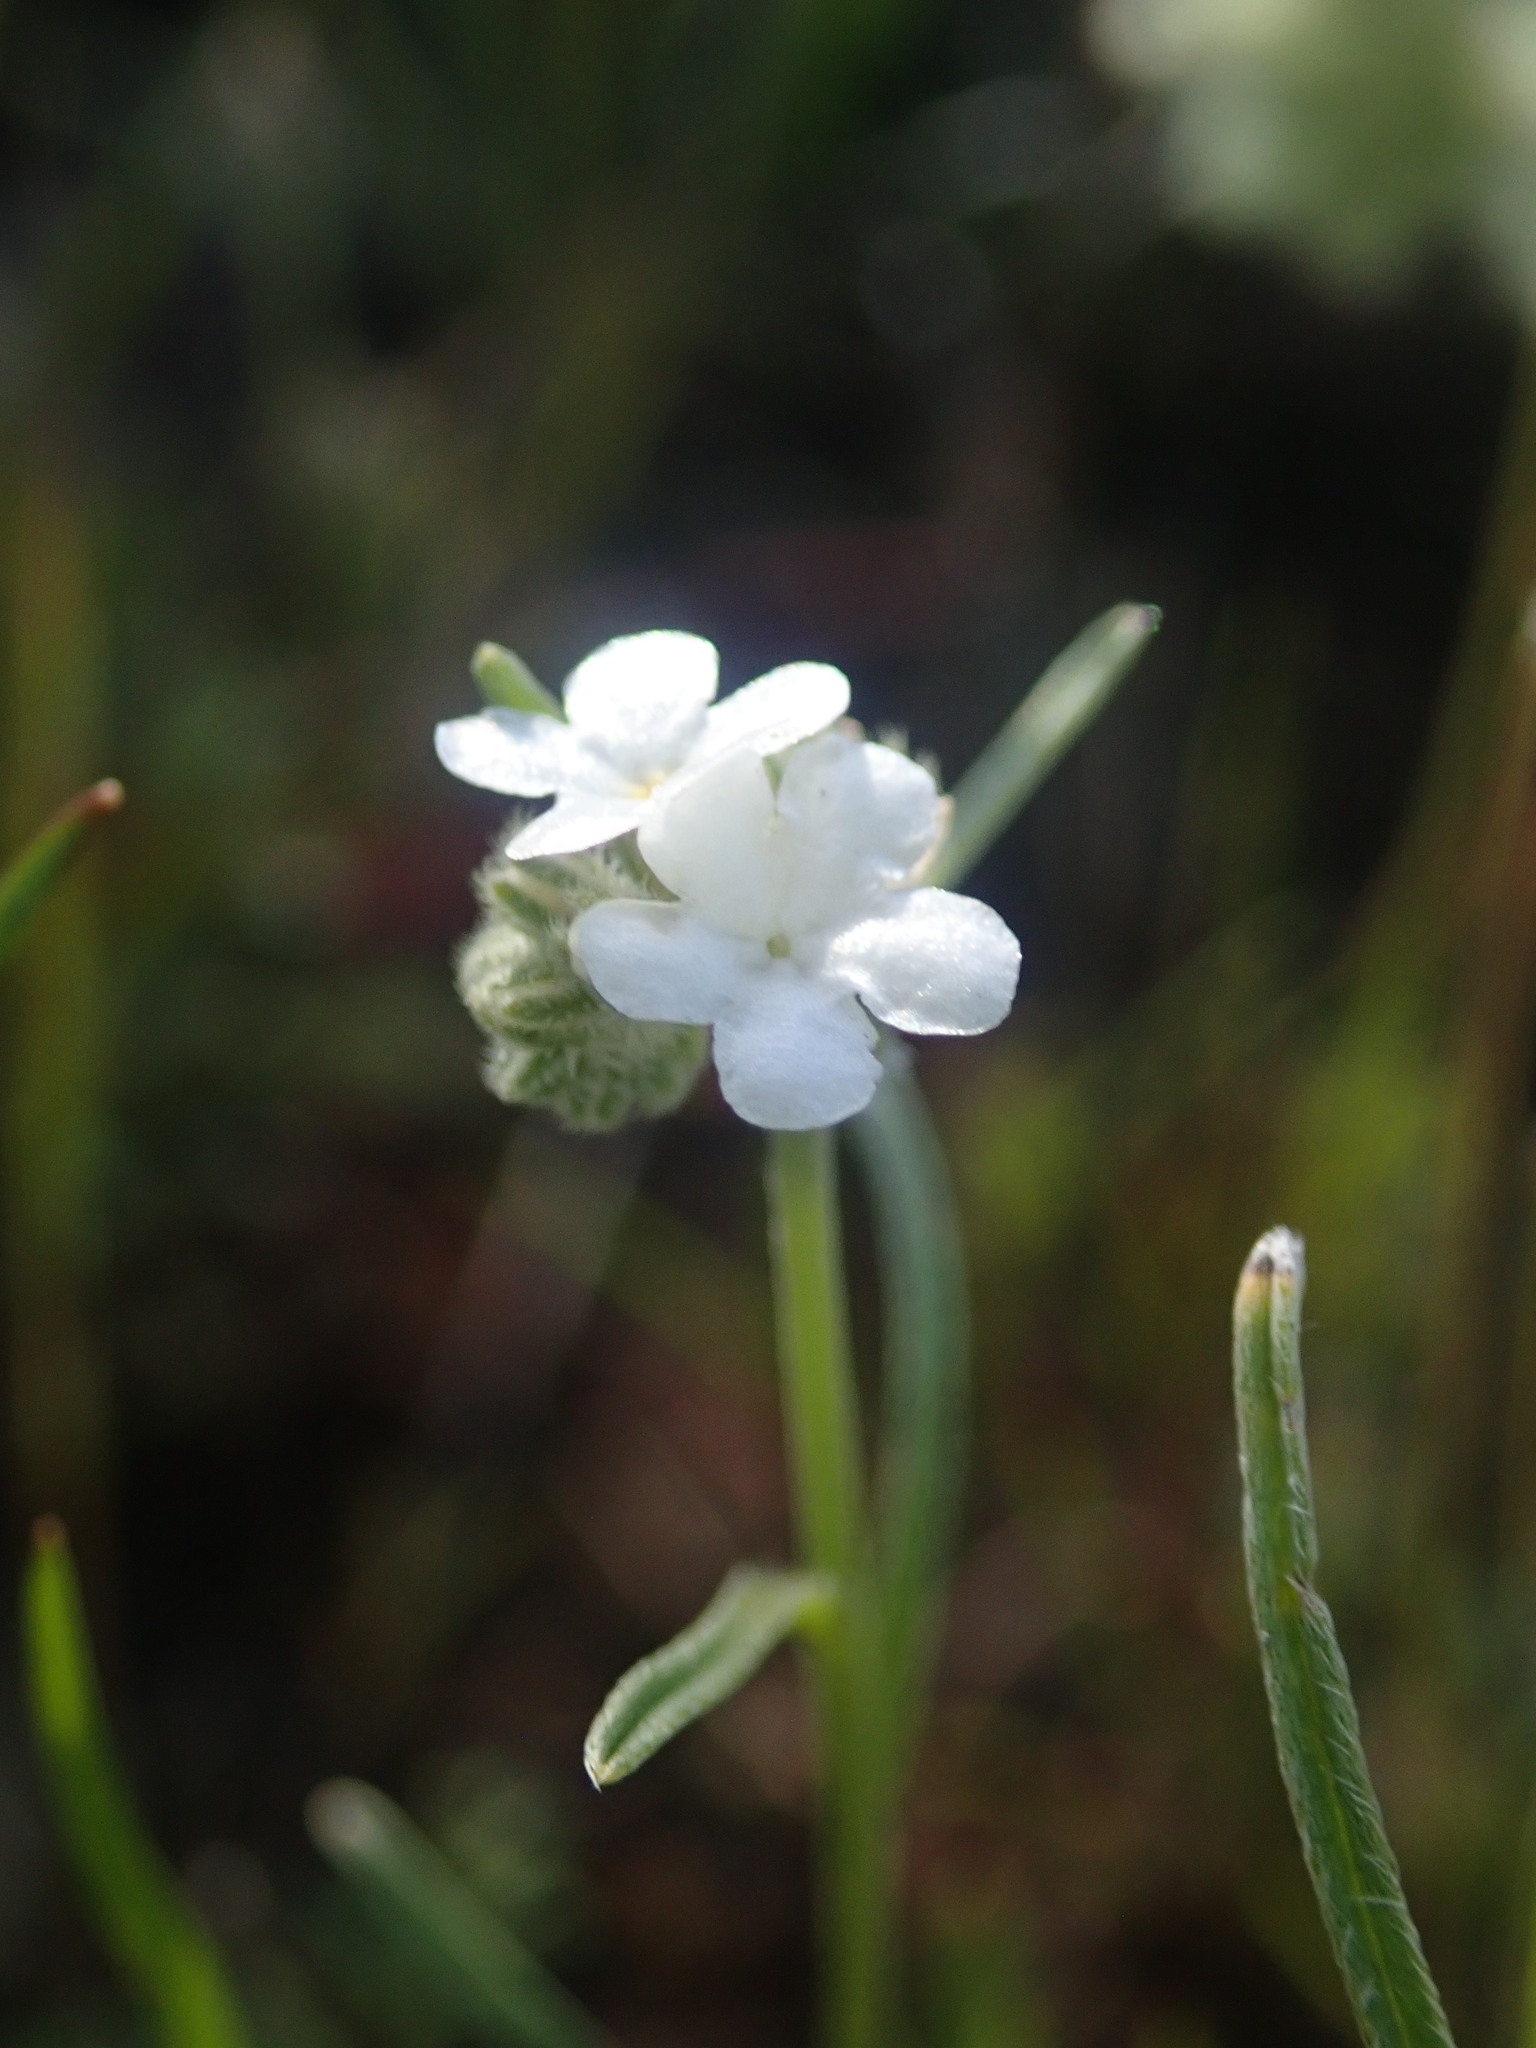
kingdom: Plantae
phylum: Tracheophyta
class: Magnoliopsida
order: Boraginales
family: Boraginaceae
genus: Cryptantha
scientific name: Cryptantha flaccida
